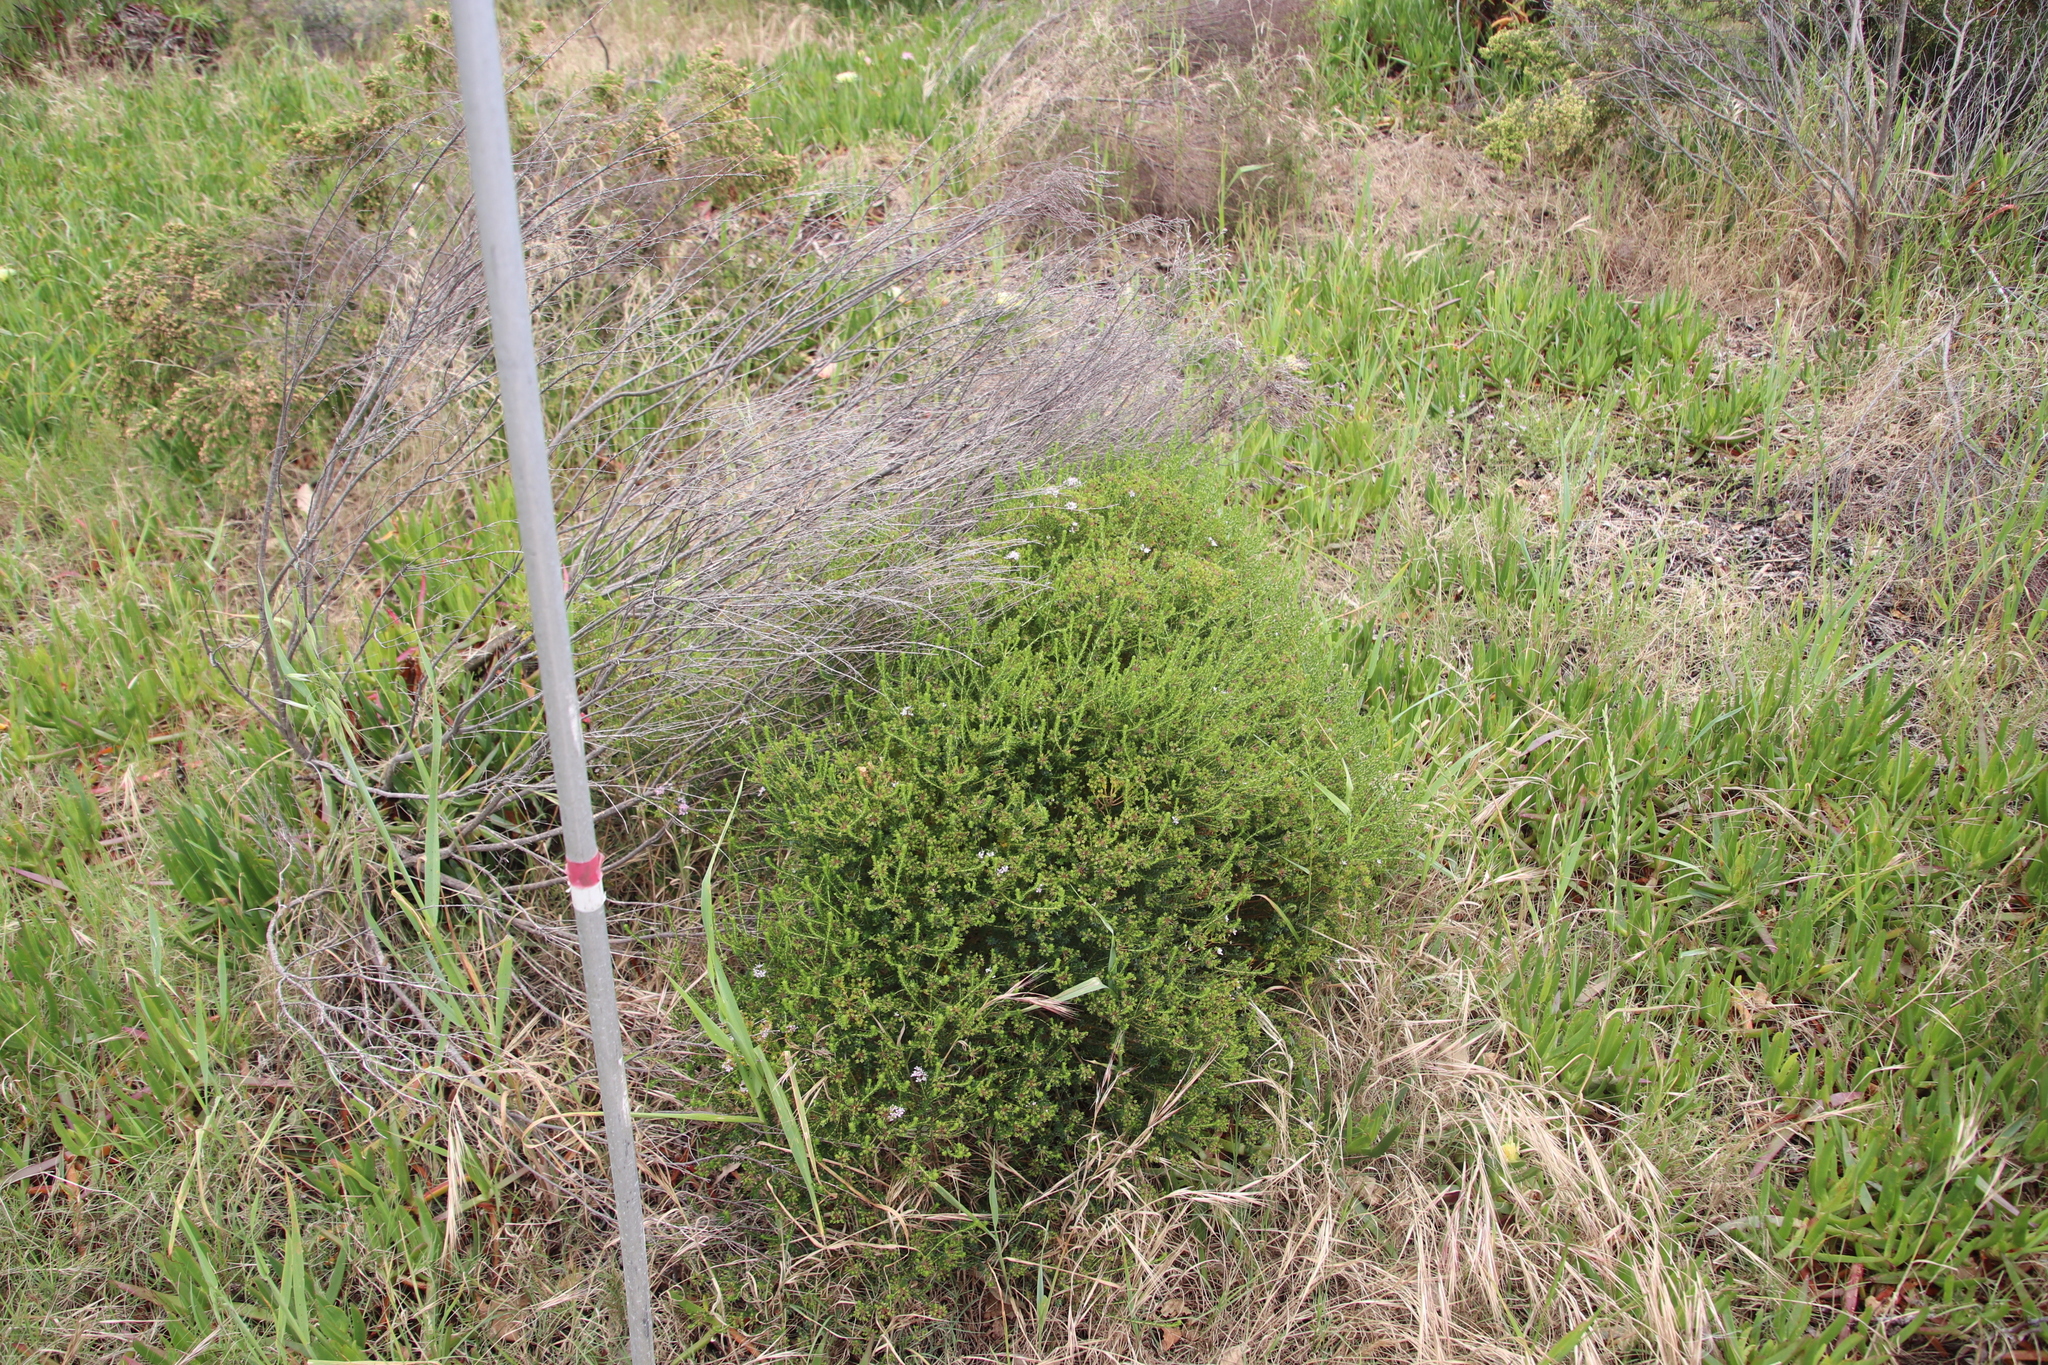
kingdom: Plantae
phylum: Tracheophyta
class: Magnoliopsida
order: Sapindales
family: Rutaceae
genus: Agathosma
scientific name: Agathosma glabrata
